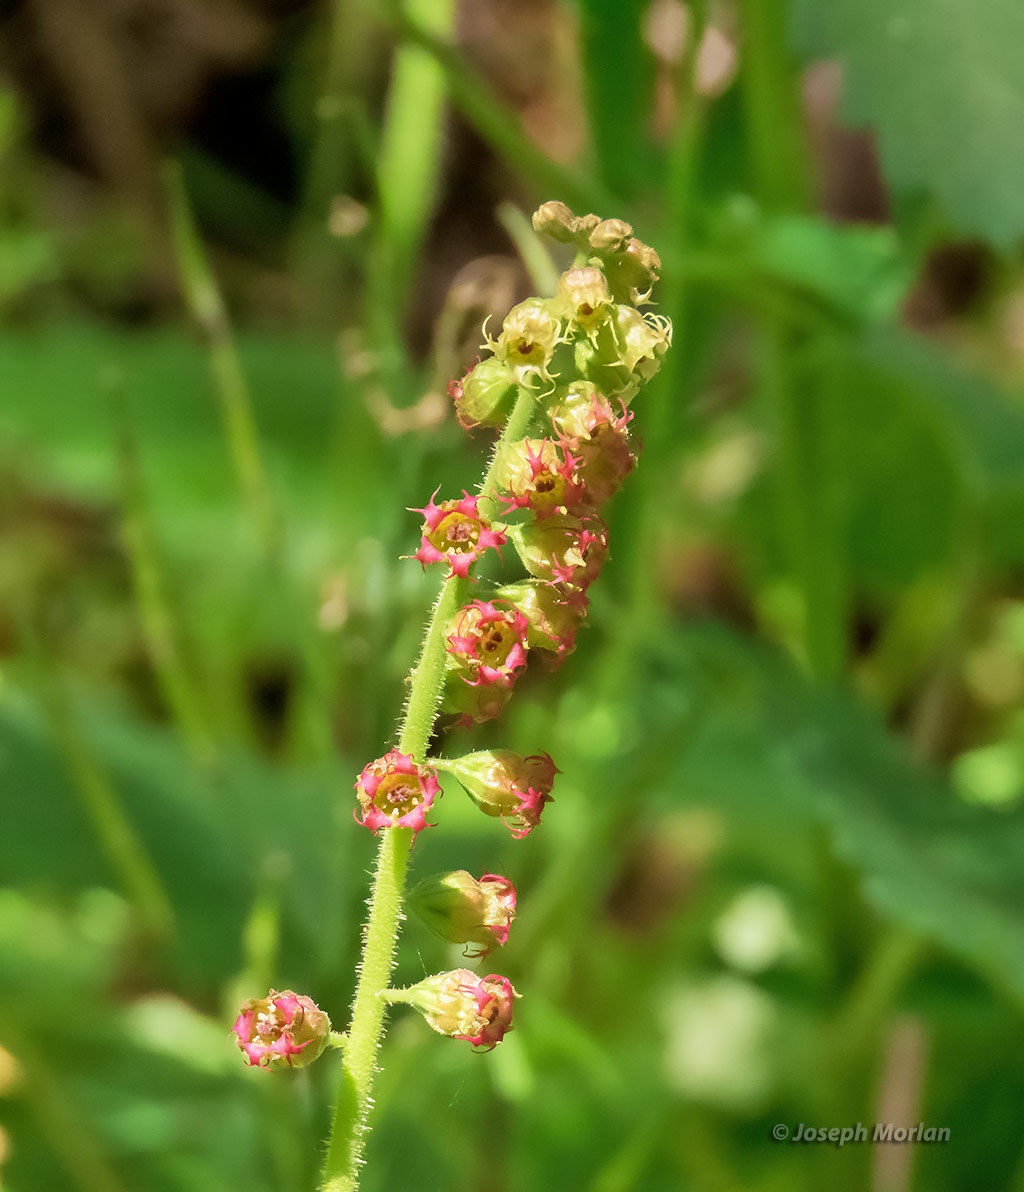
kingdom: Plantae
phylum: Tracheophyta
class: Magnoliopsida
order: Saxifragales
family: Saxifragaceae
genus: Tellima
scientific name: Tellima grandiflora
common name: Fringecups
